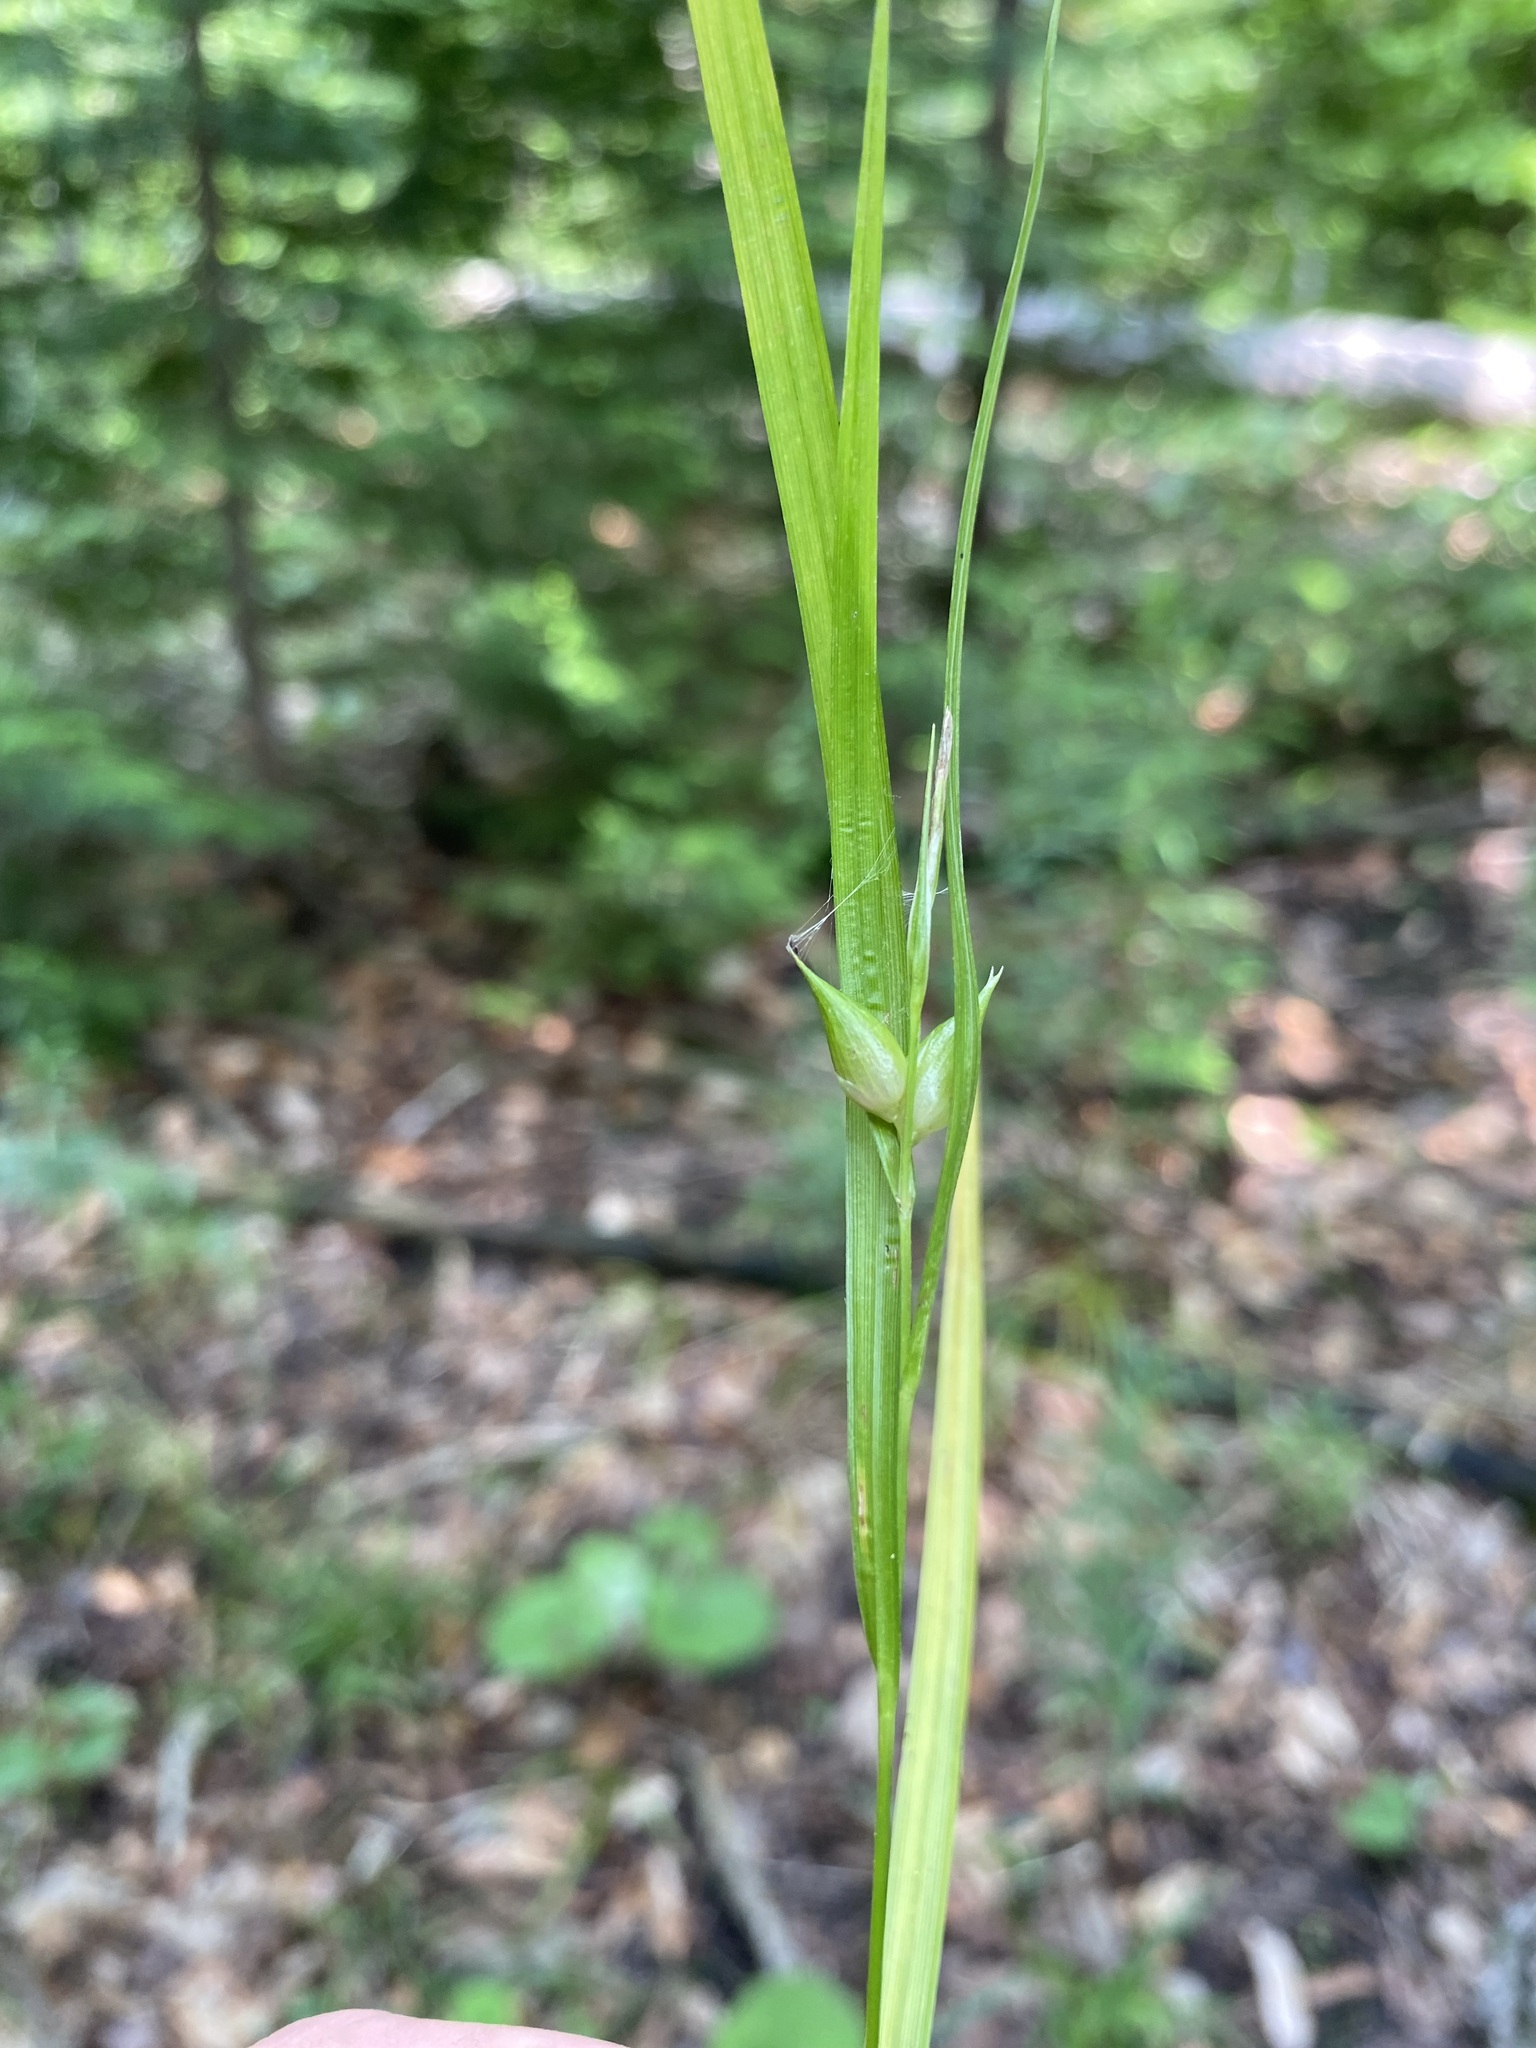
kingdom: Plantae
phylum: Tracheophyta
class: Liliopsida
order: Poales
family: Cyperaceae
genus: Carex
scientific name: Carex intumescens
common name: Greater bladder sedge
